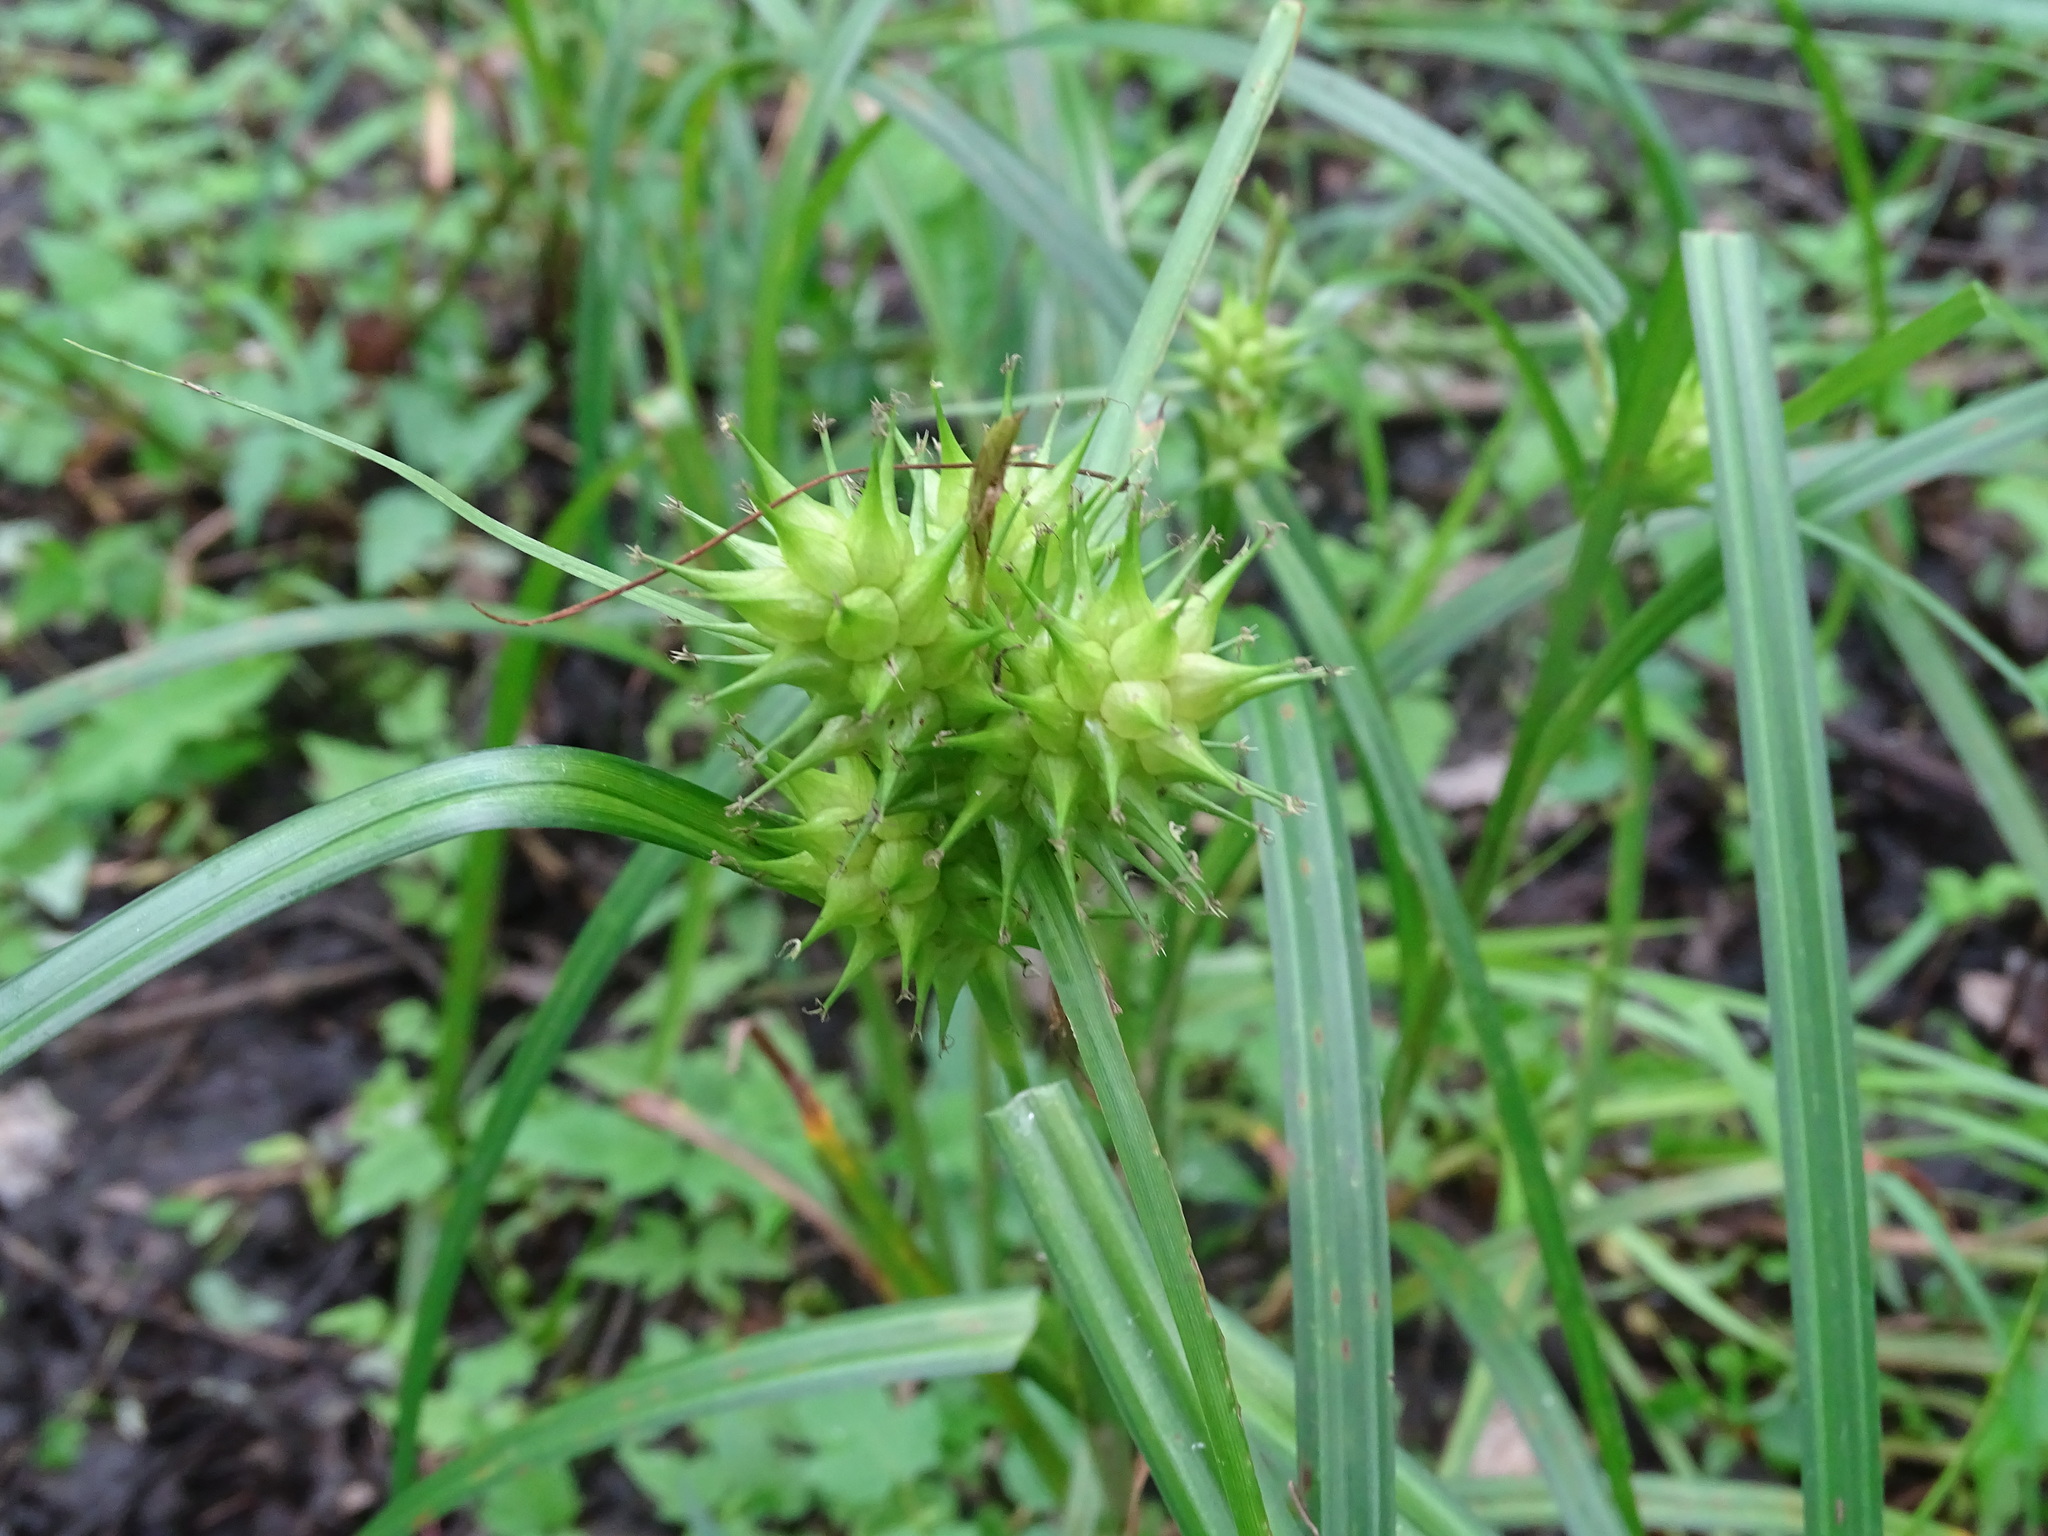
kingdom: Plantae
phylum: Tracheophyta
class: Liliopsida
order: Poales
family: Cyperaceae
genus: Carex
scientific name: Carex lupulina
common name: Hop sedge
